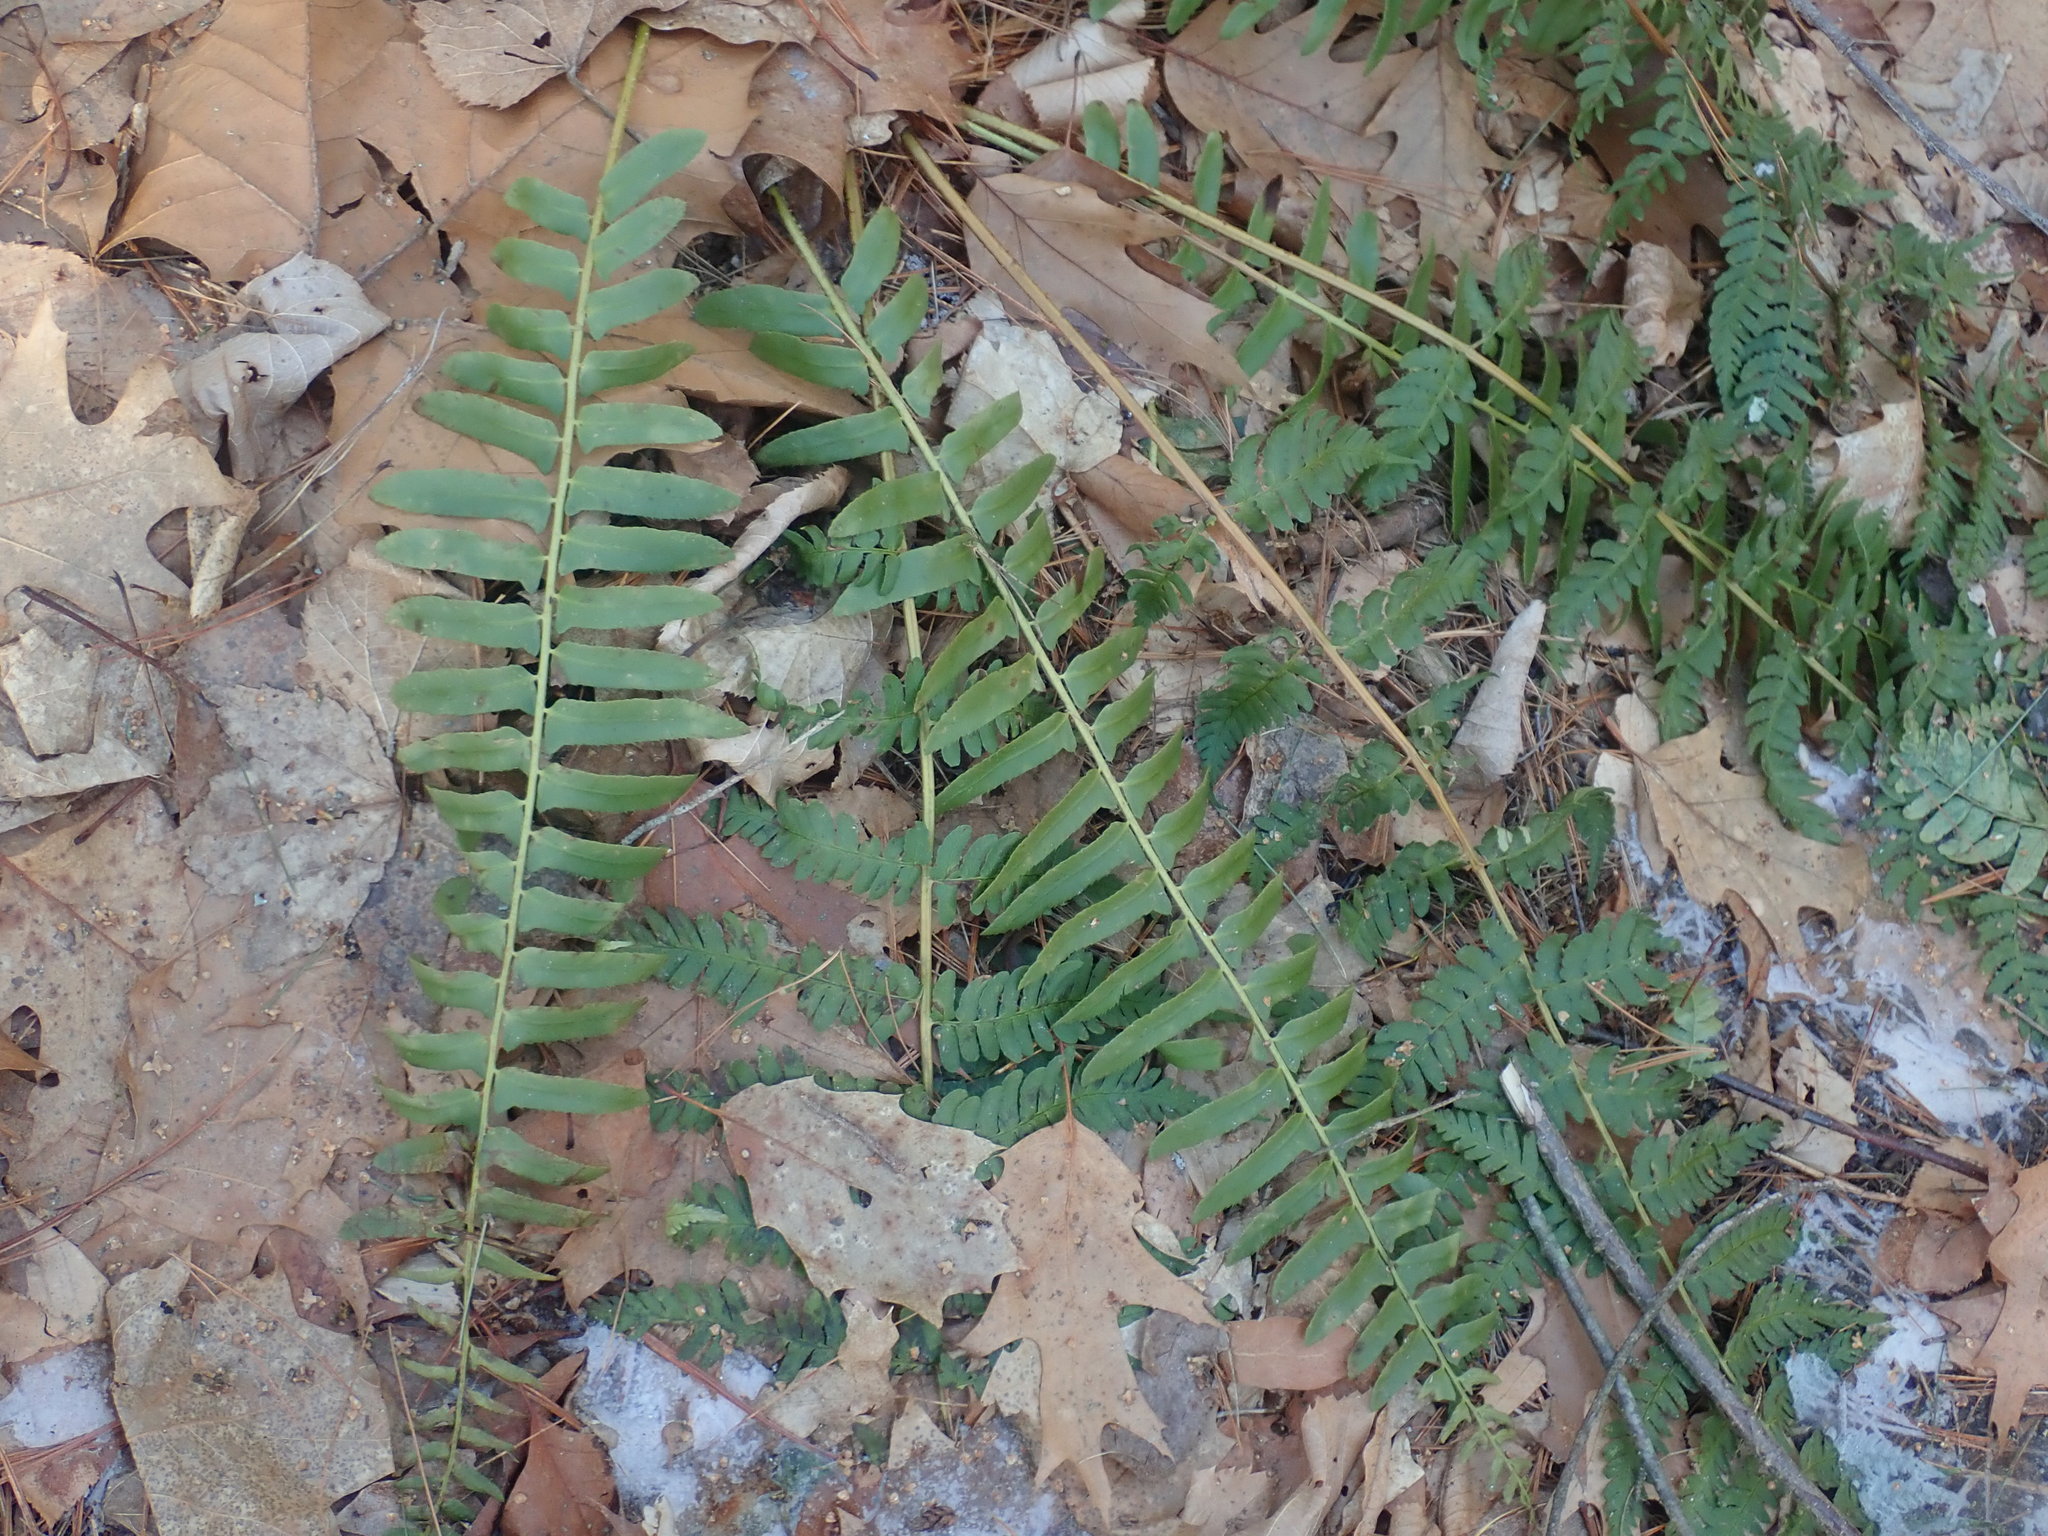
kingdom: Plantae
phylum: Tracheophyta
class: Polypodiopsida
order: Polypodiales
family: Dryopteridaceae
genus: Polystichum
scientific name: Polystichum acrostichoides
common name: Christmas fern
